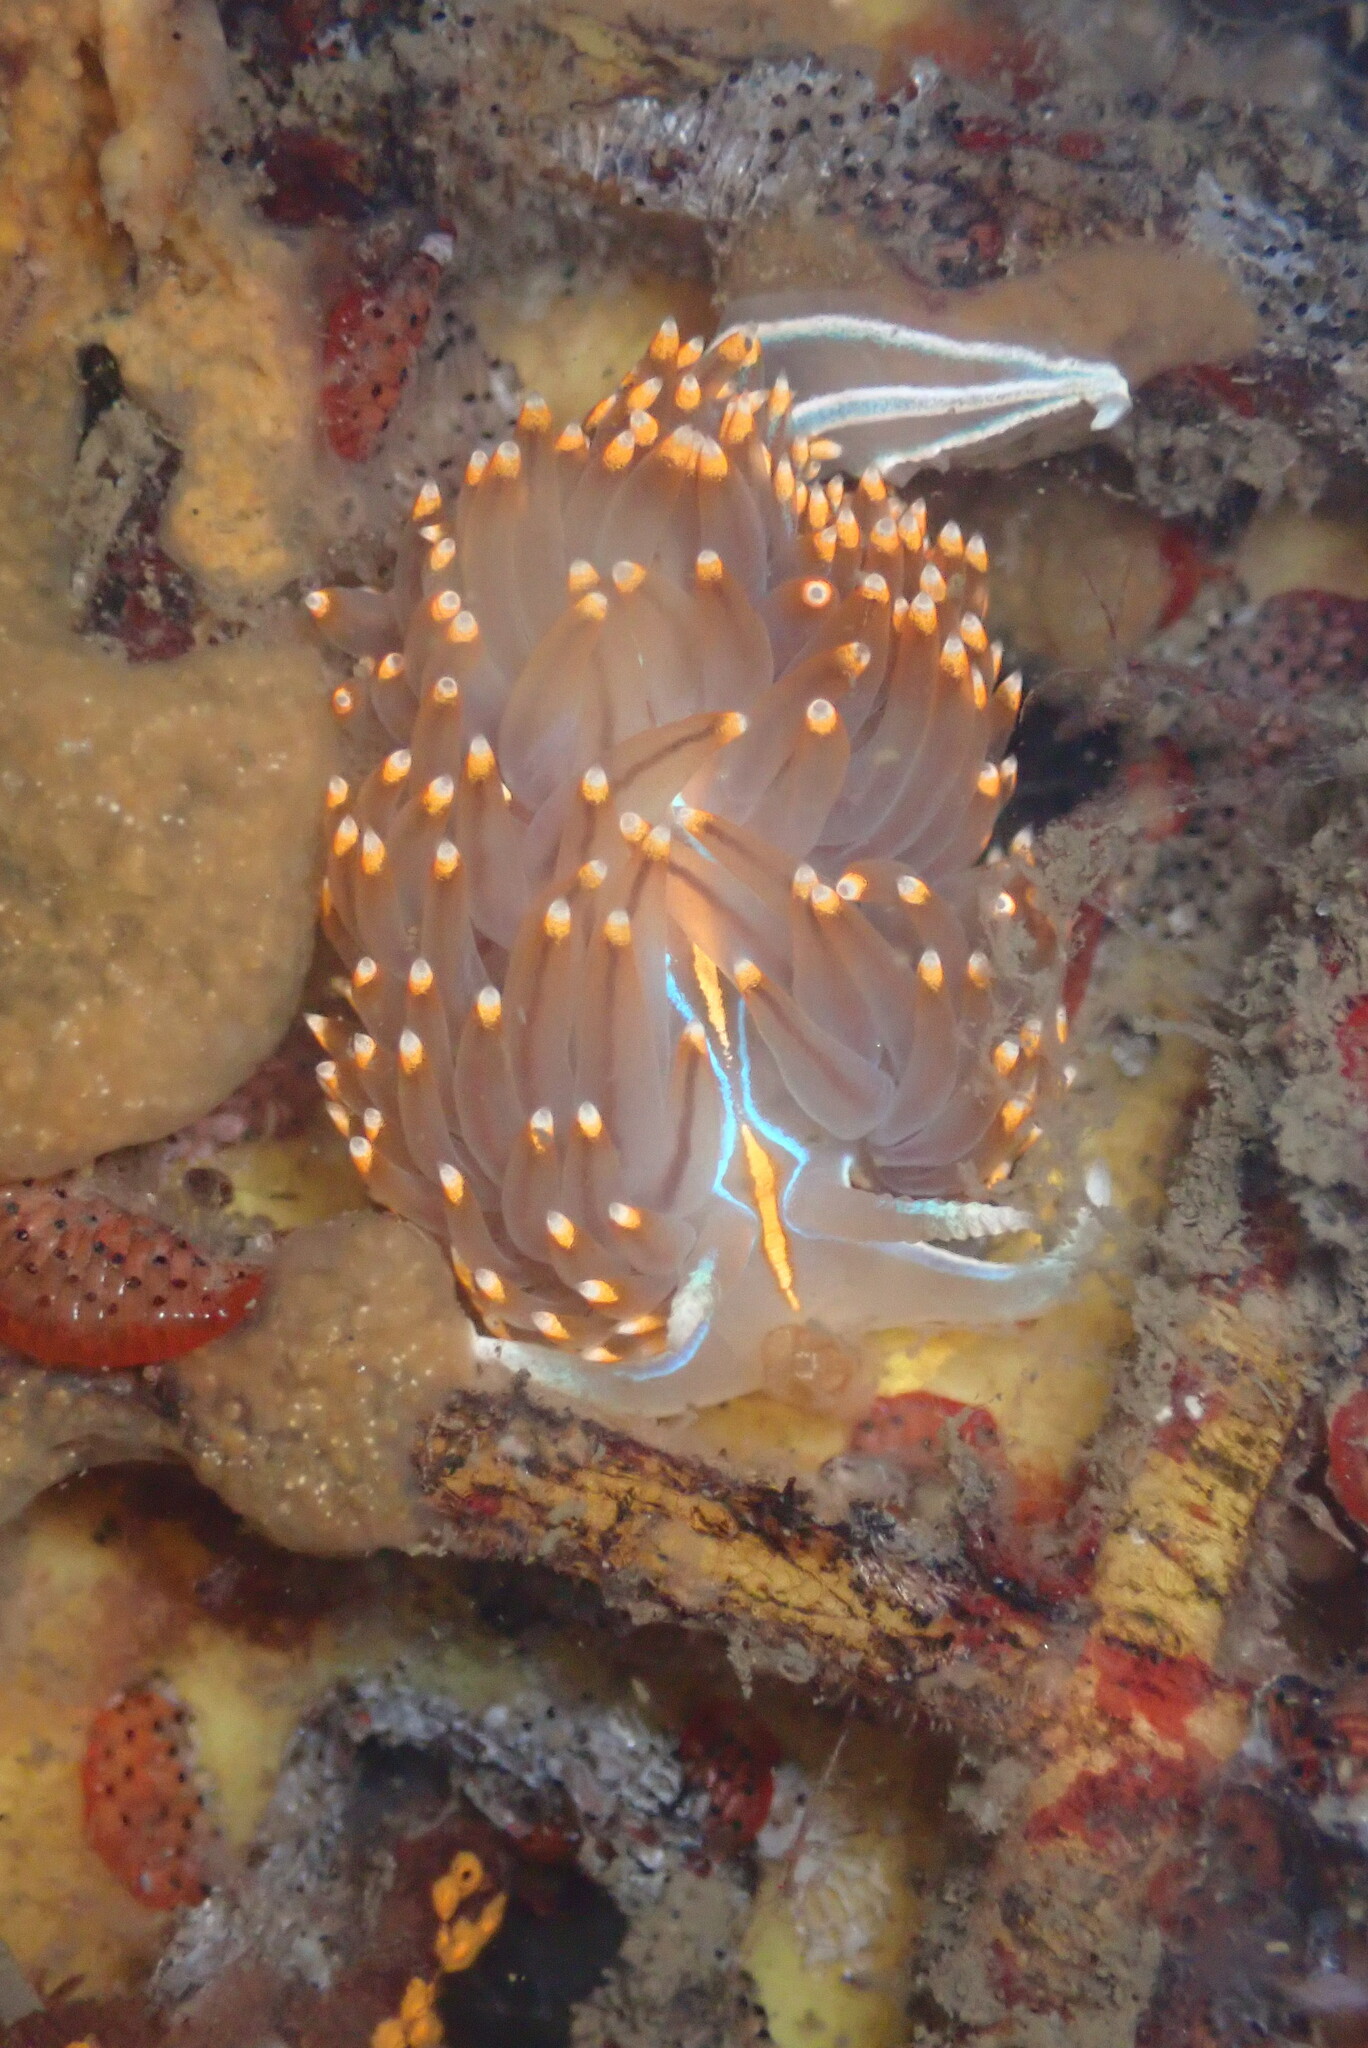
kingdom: Animalia
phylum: Mollusca
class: Gastropoda
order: Nudibranchia
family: Myrrhinidae
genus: Hermissenda
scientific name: Hermissenda opalescens
